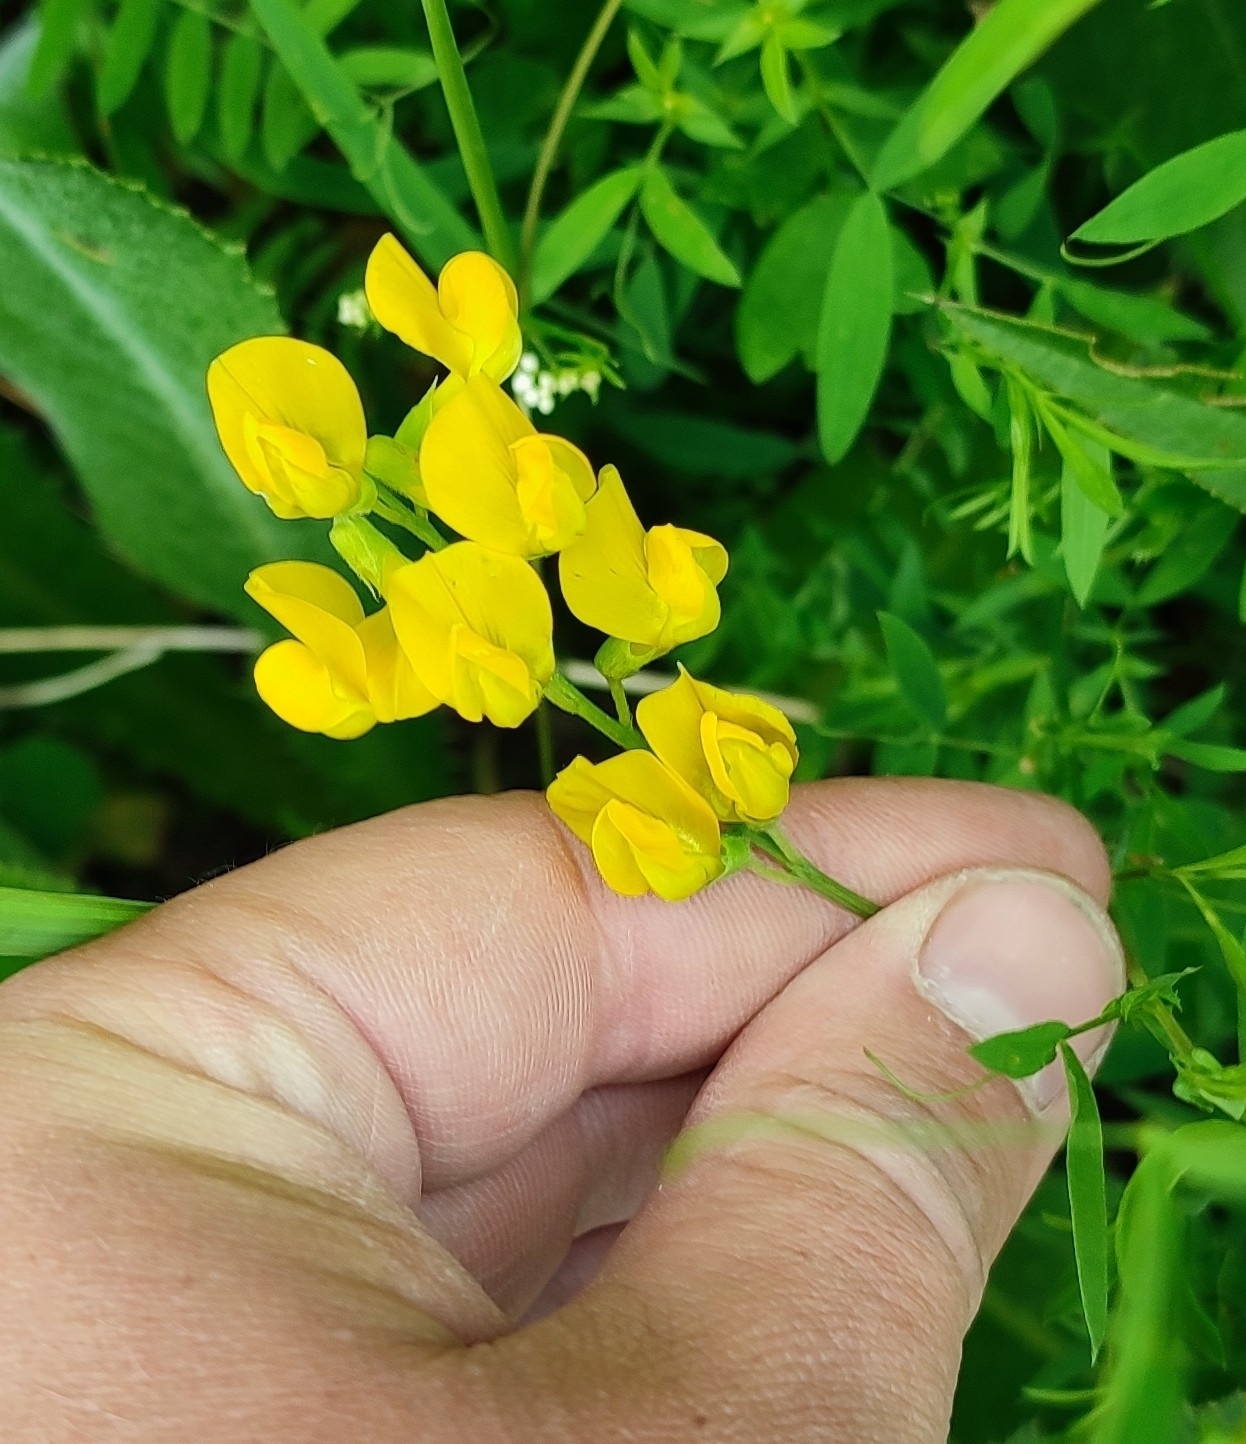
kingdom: Plantae
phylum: Tracheophyta
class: Magnoliopsida
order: Fabales
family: Fabaceae
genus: Lathyrus
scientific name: Lathyrus pratensis
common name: Meadow vetchling
